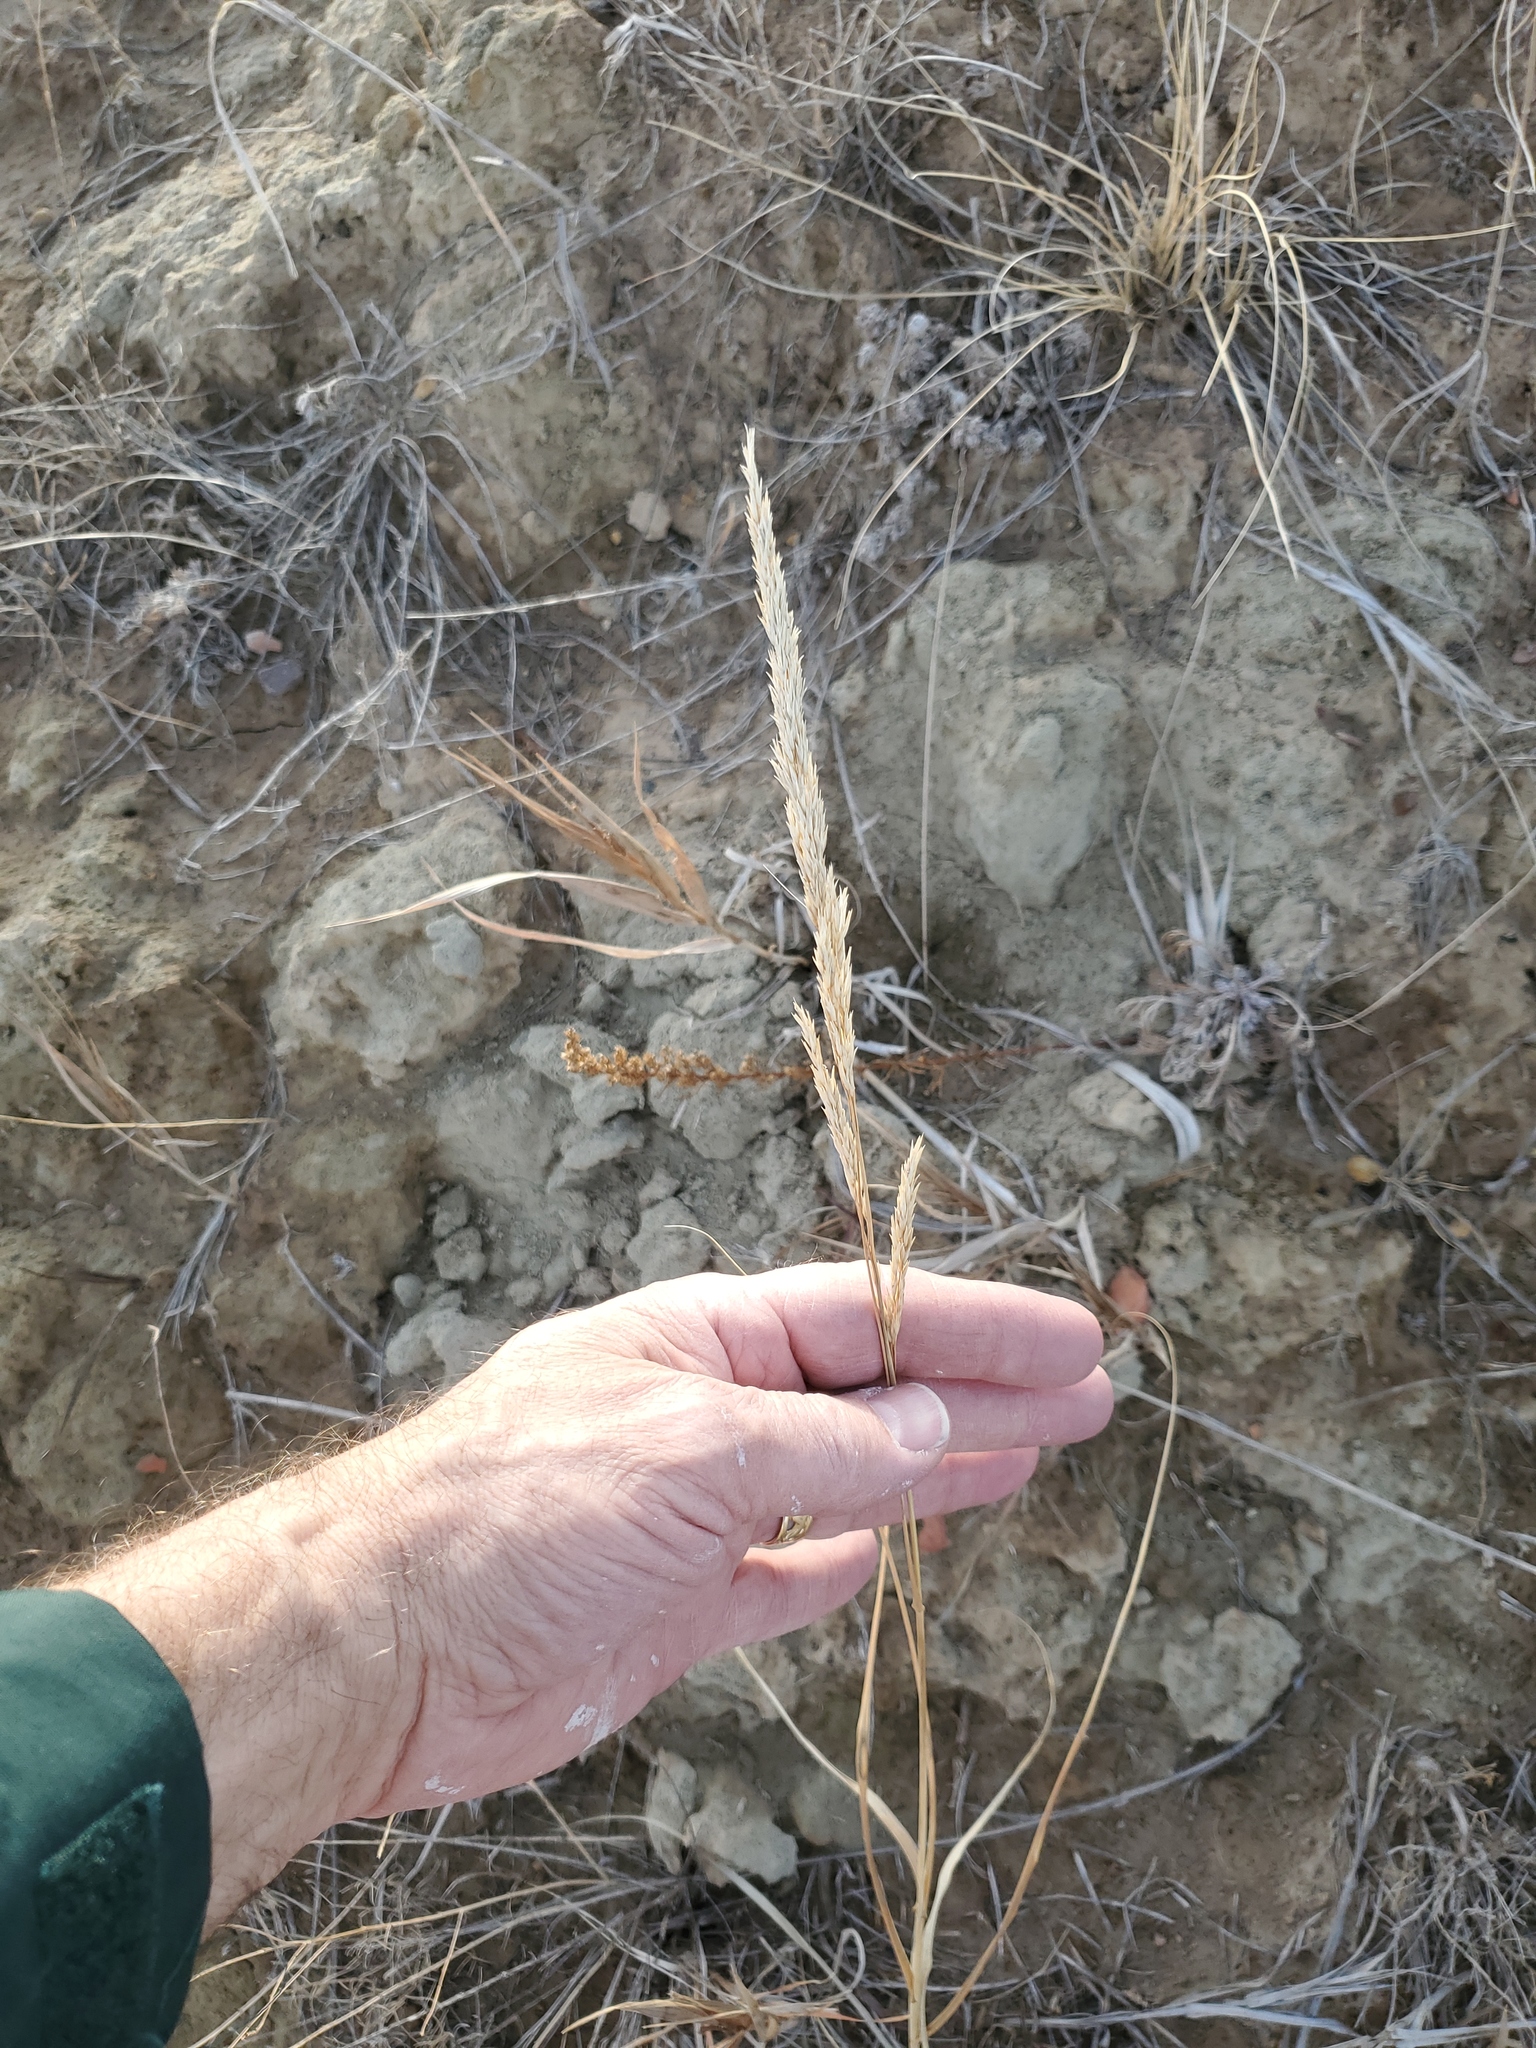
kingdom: Plantae
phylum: Tracheophyta
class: Liliopsida
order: Poales
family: Poaceae
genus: Koeleria
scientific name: Koeleria macrantha
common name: Crested hair-grass
